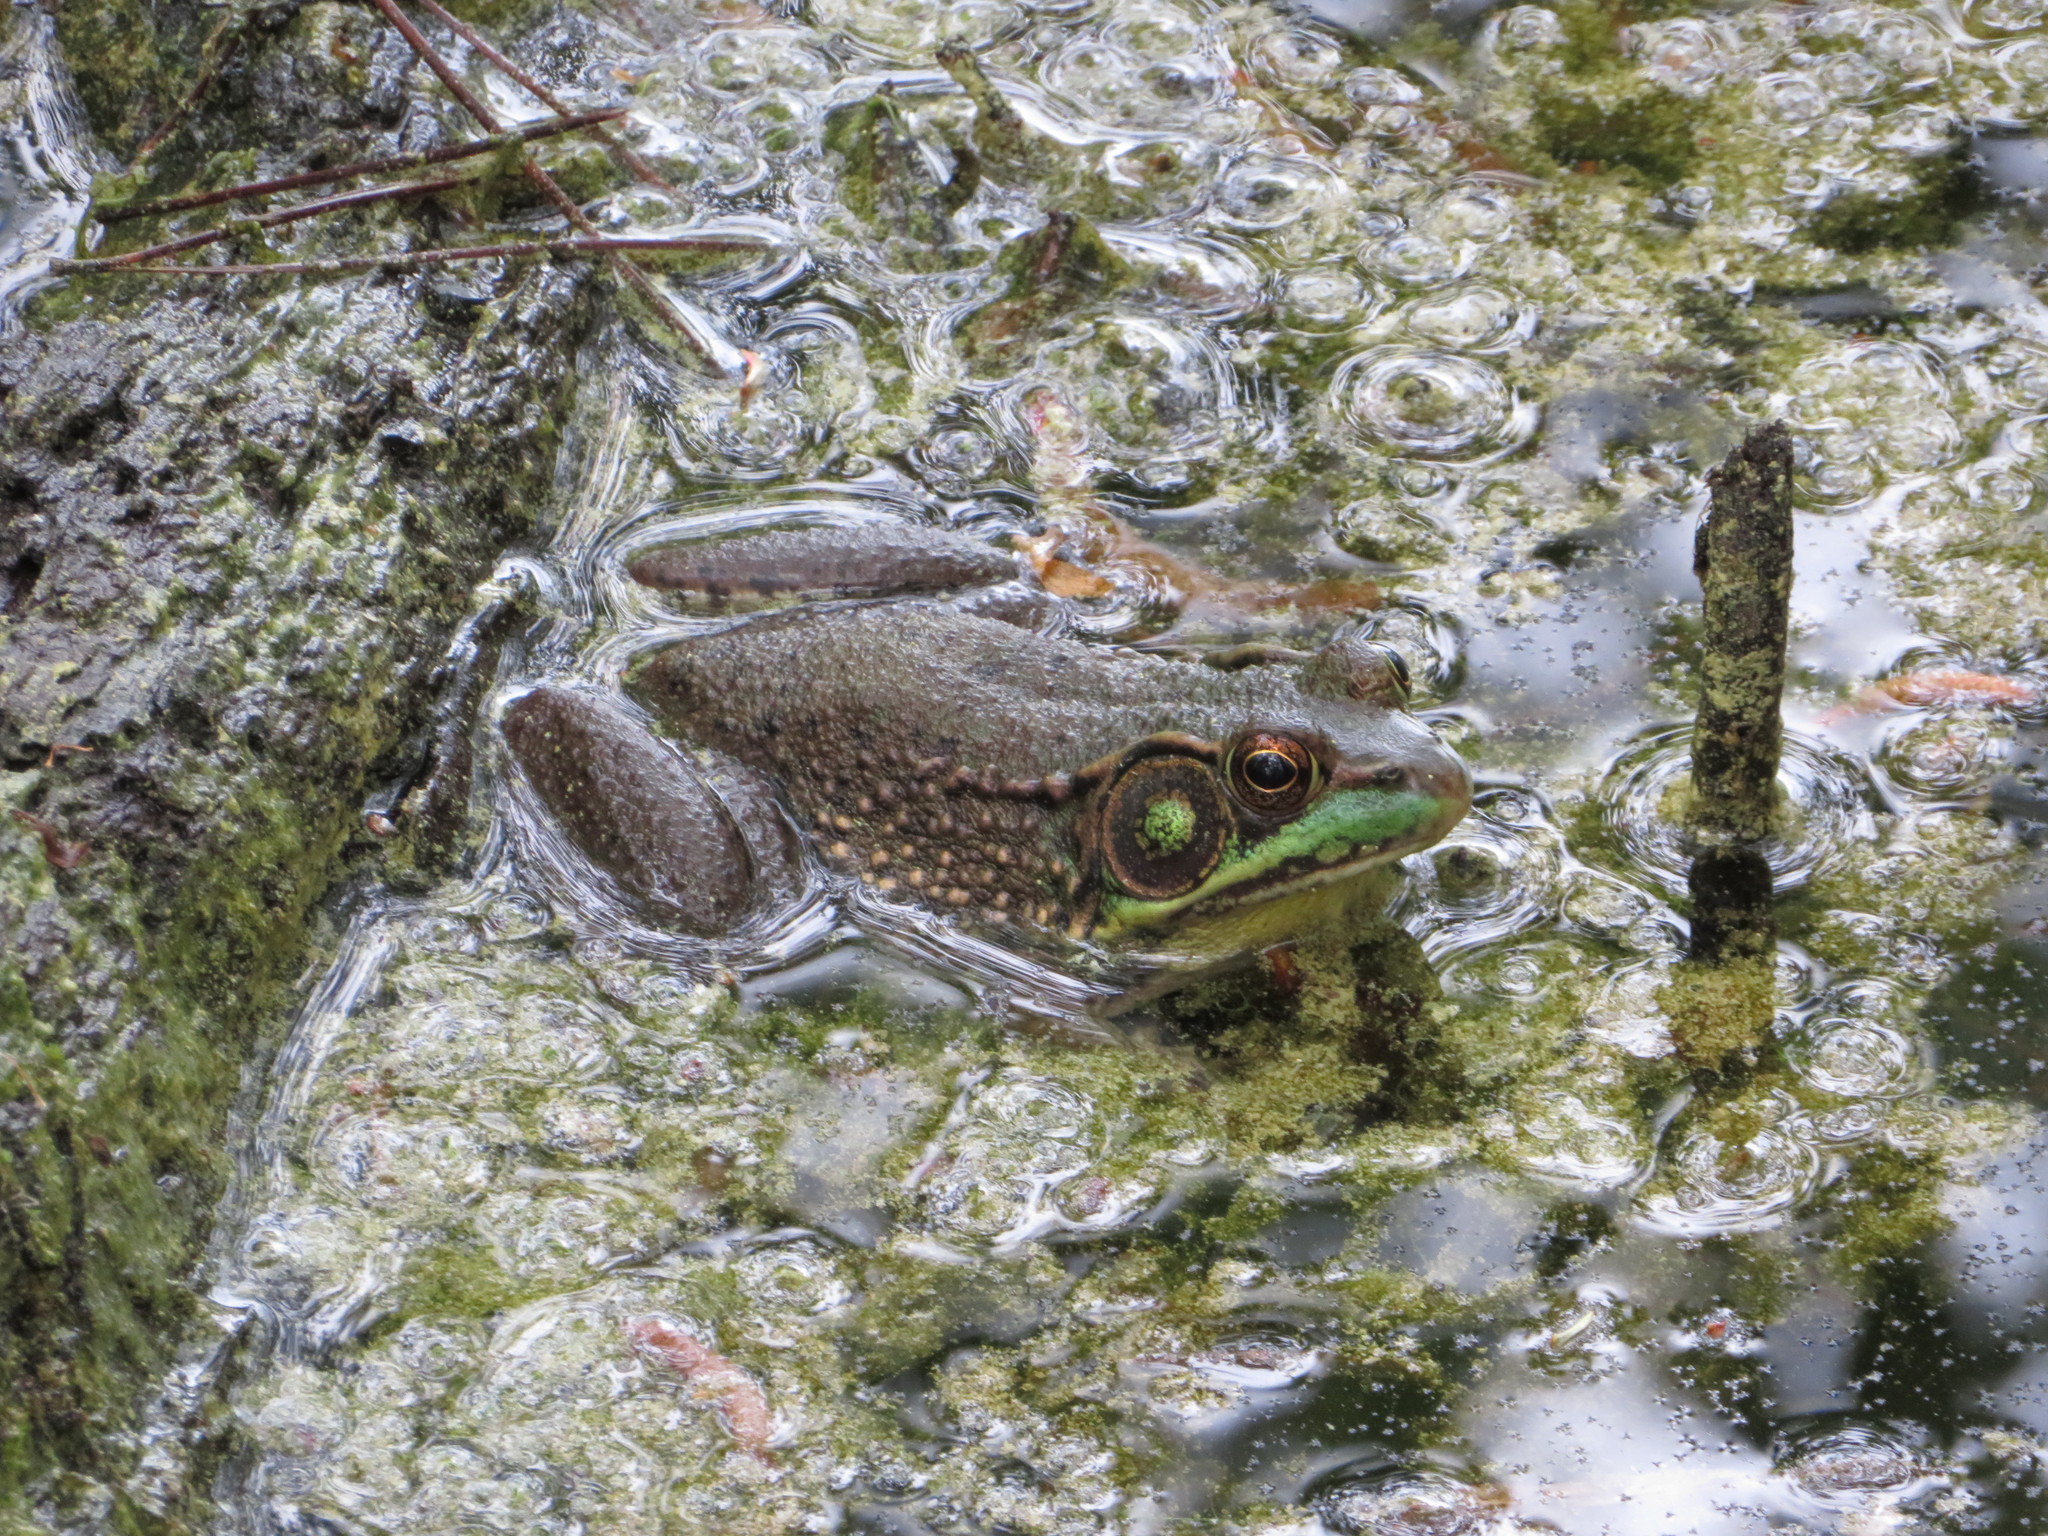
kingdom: Animalia
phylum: Chordata
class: Amphibia
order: Anura
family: Ranidae
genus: Lithobates
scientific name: Lithobates clamitans
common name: Green frog
